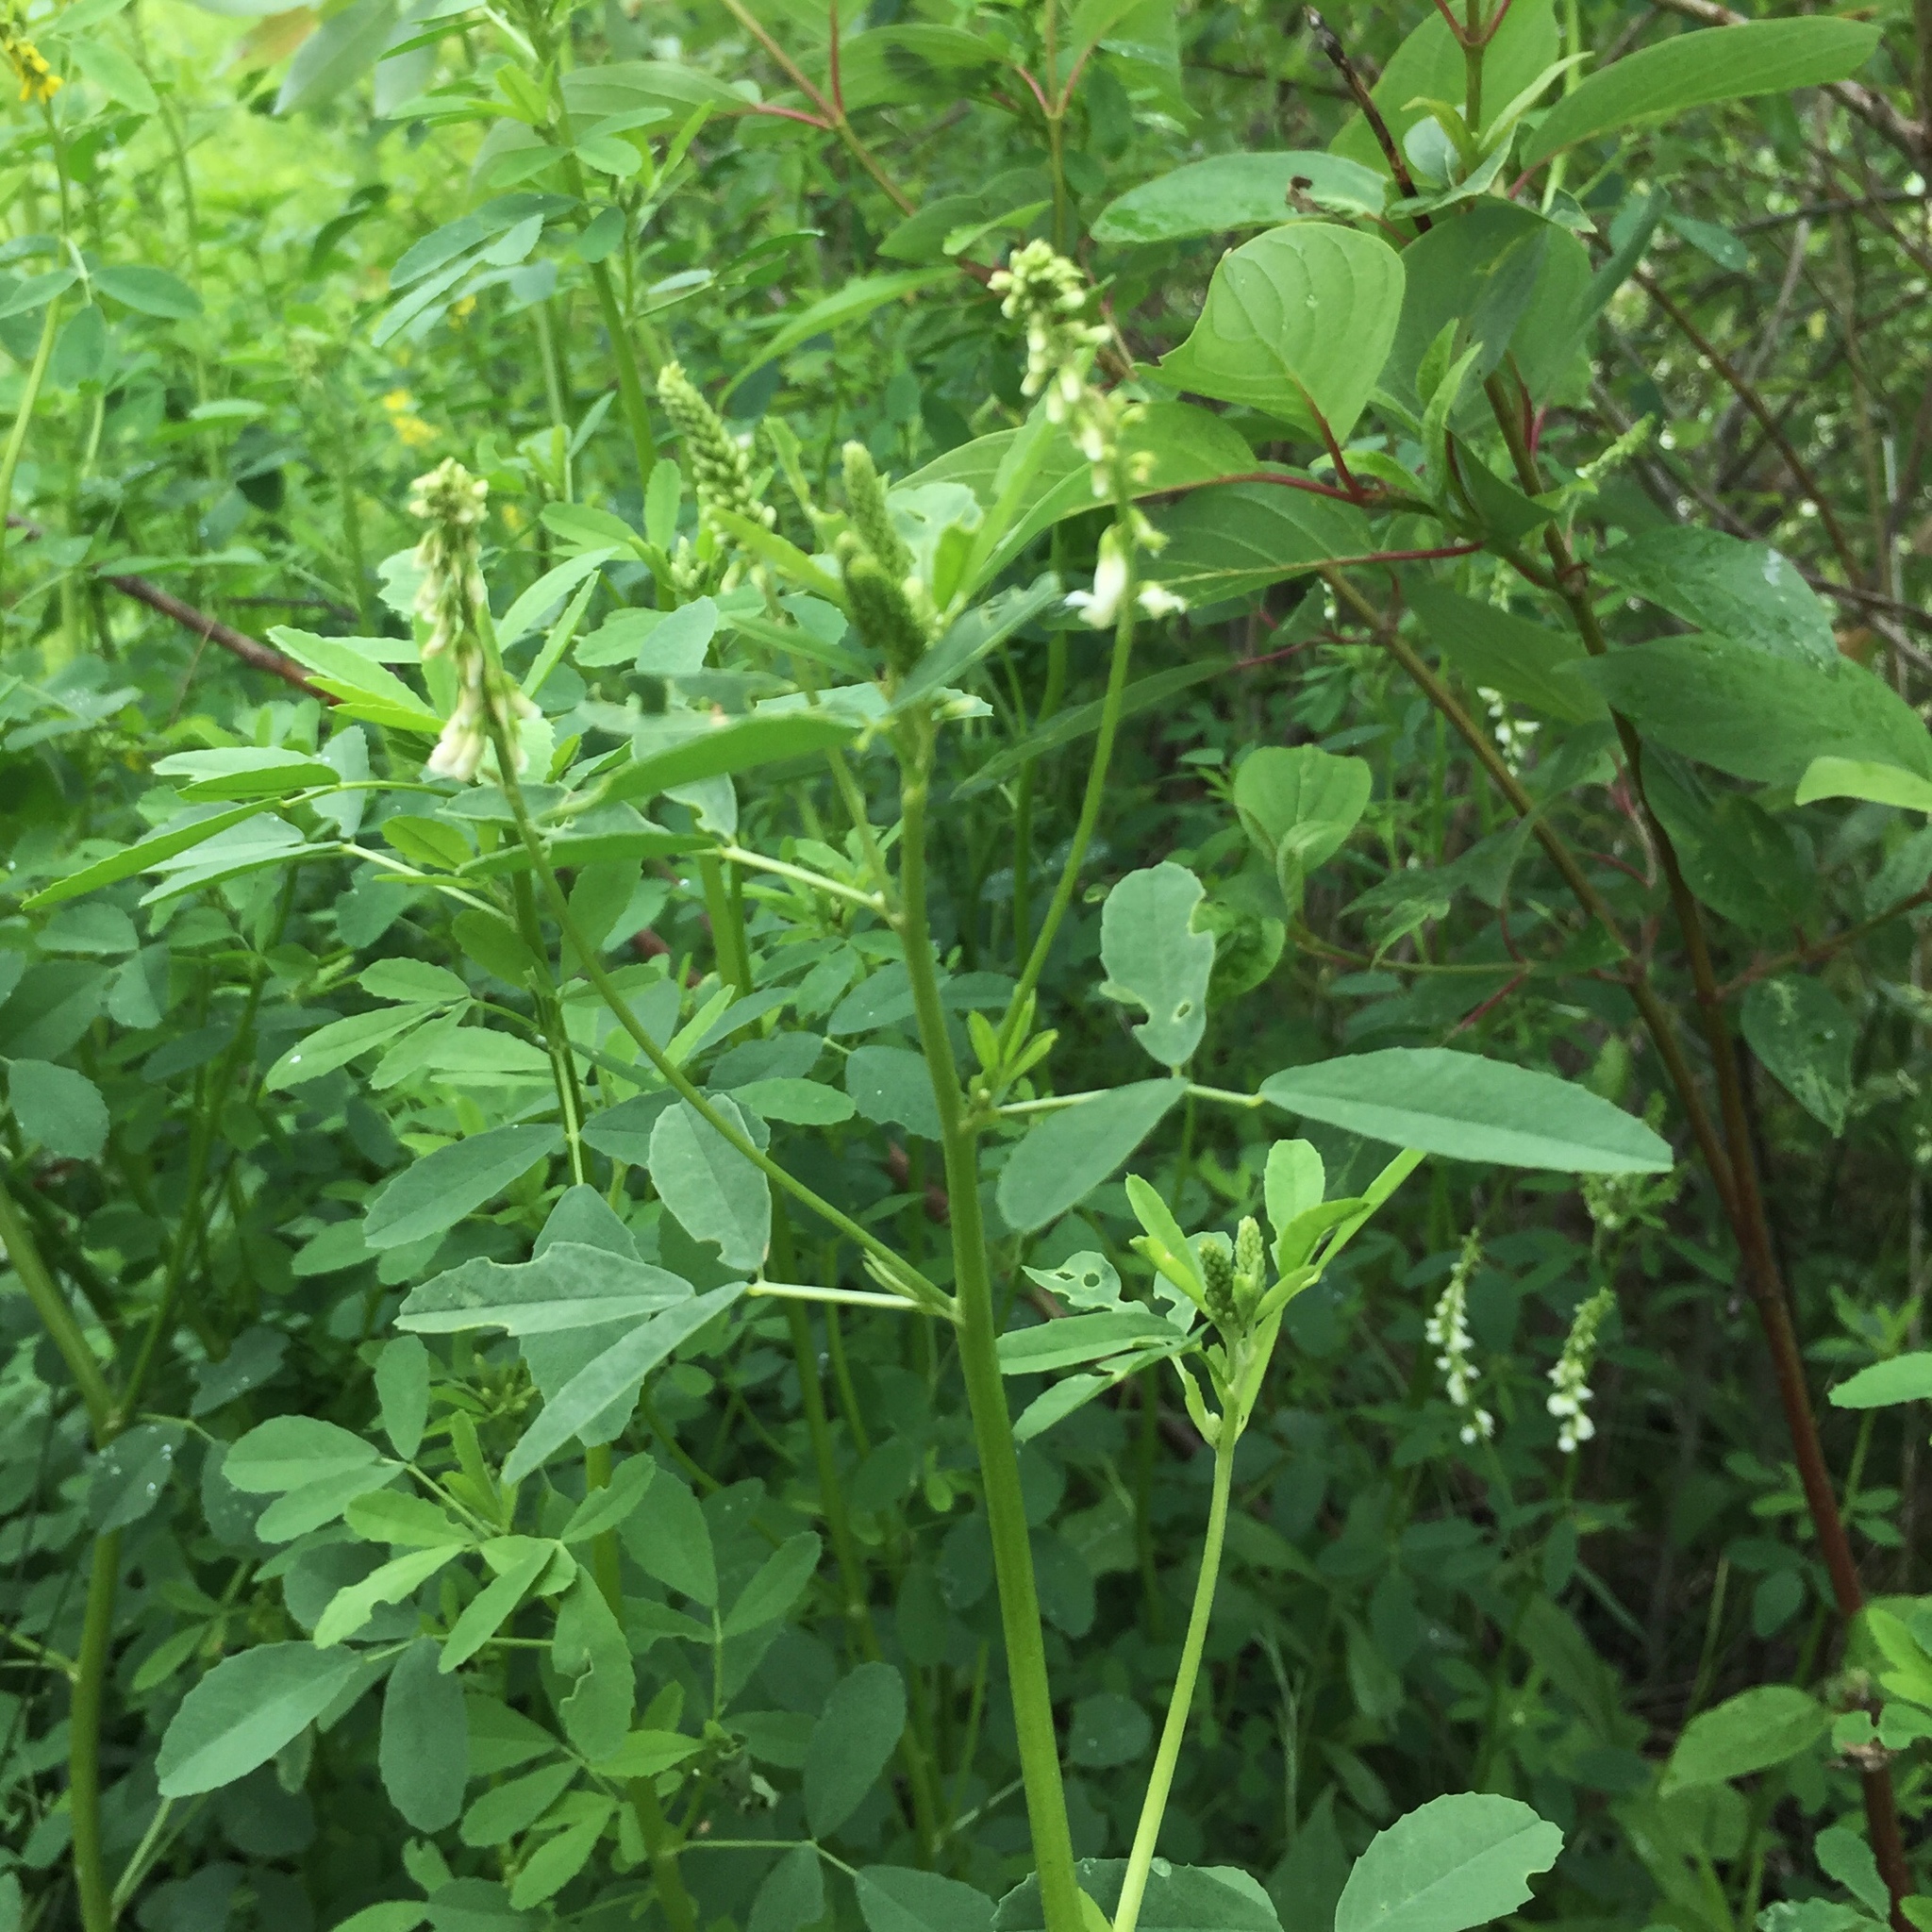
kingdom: Plantae
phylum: Tracheophyta
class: Magnoliopsida
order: Fabales
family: Fabaceae
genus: Melilotus
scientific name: Melilotus albus
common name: White melilot
